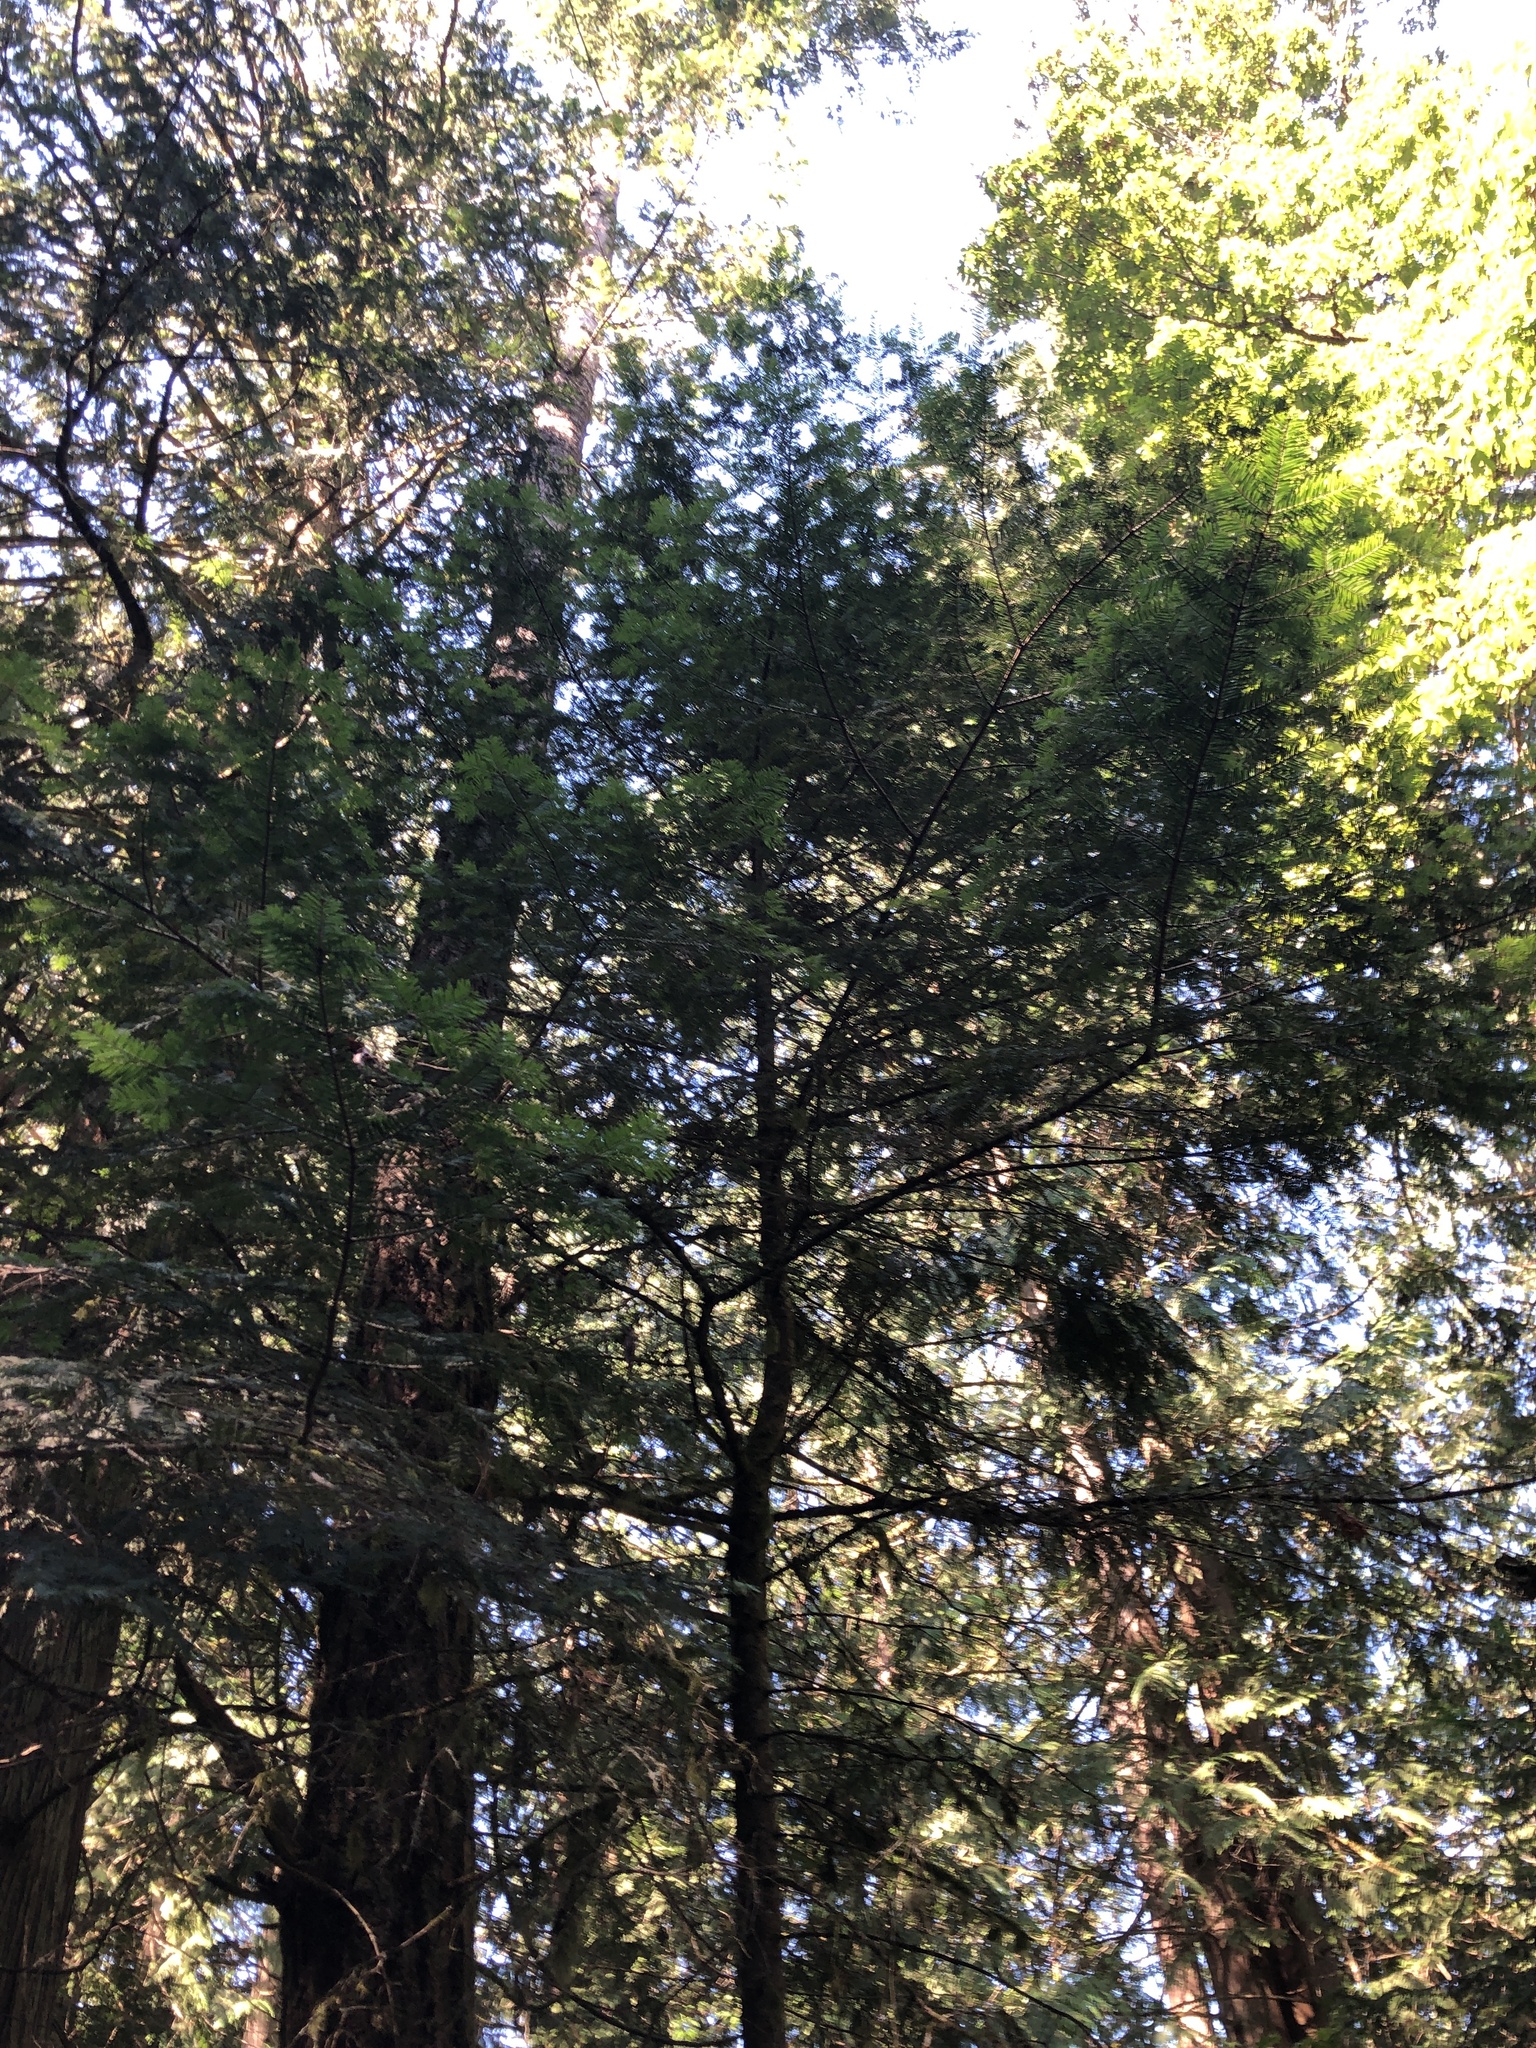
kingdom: Plantae
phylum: Tracheophyta
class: Pinopsida
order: Pinales
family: Pinaceae
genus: Abies
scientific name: Abies grandis
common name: Giant fir
